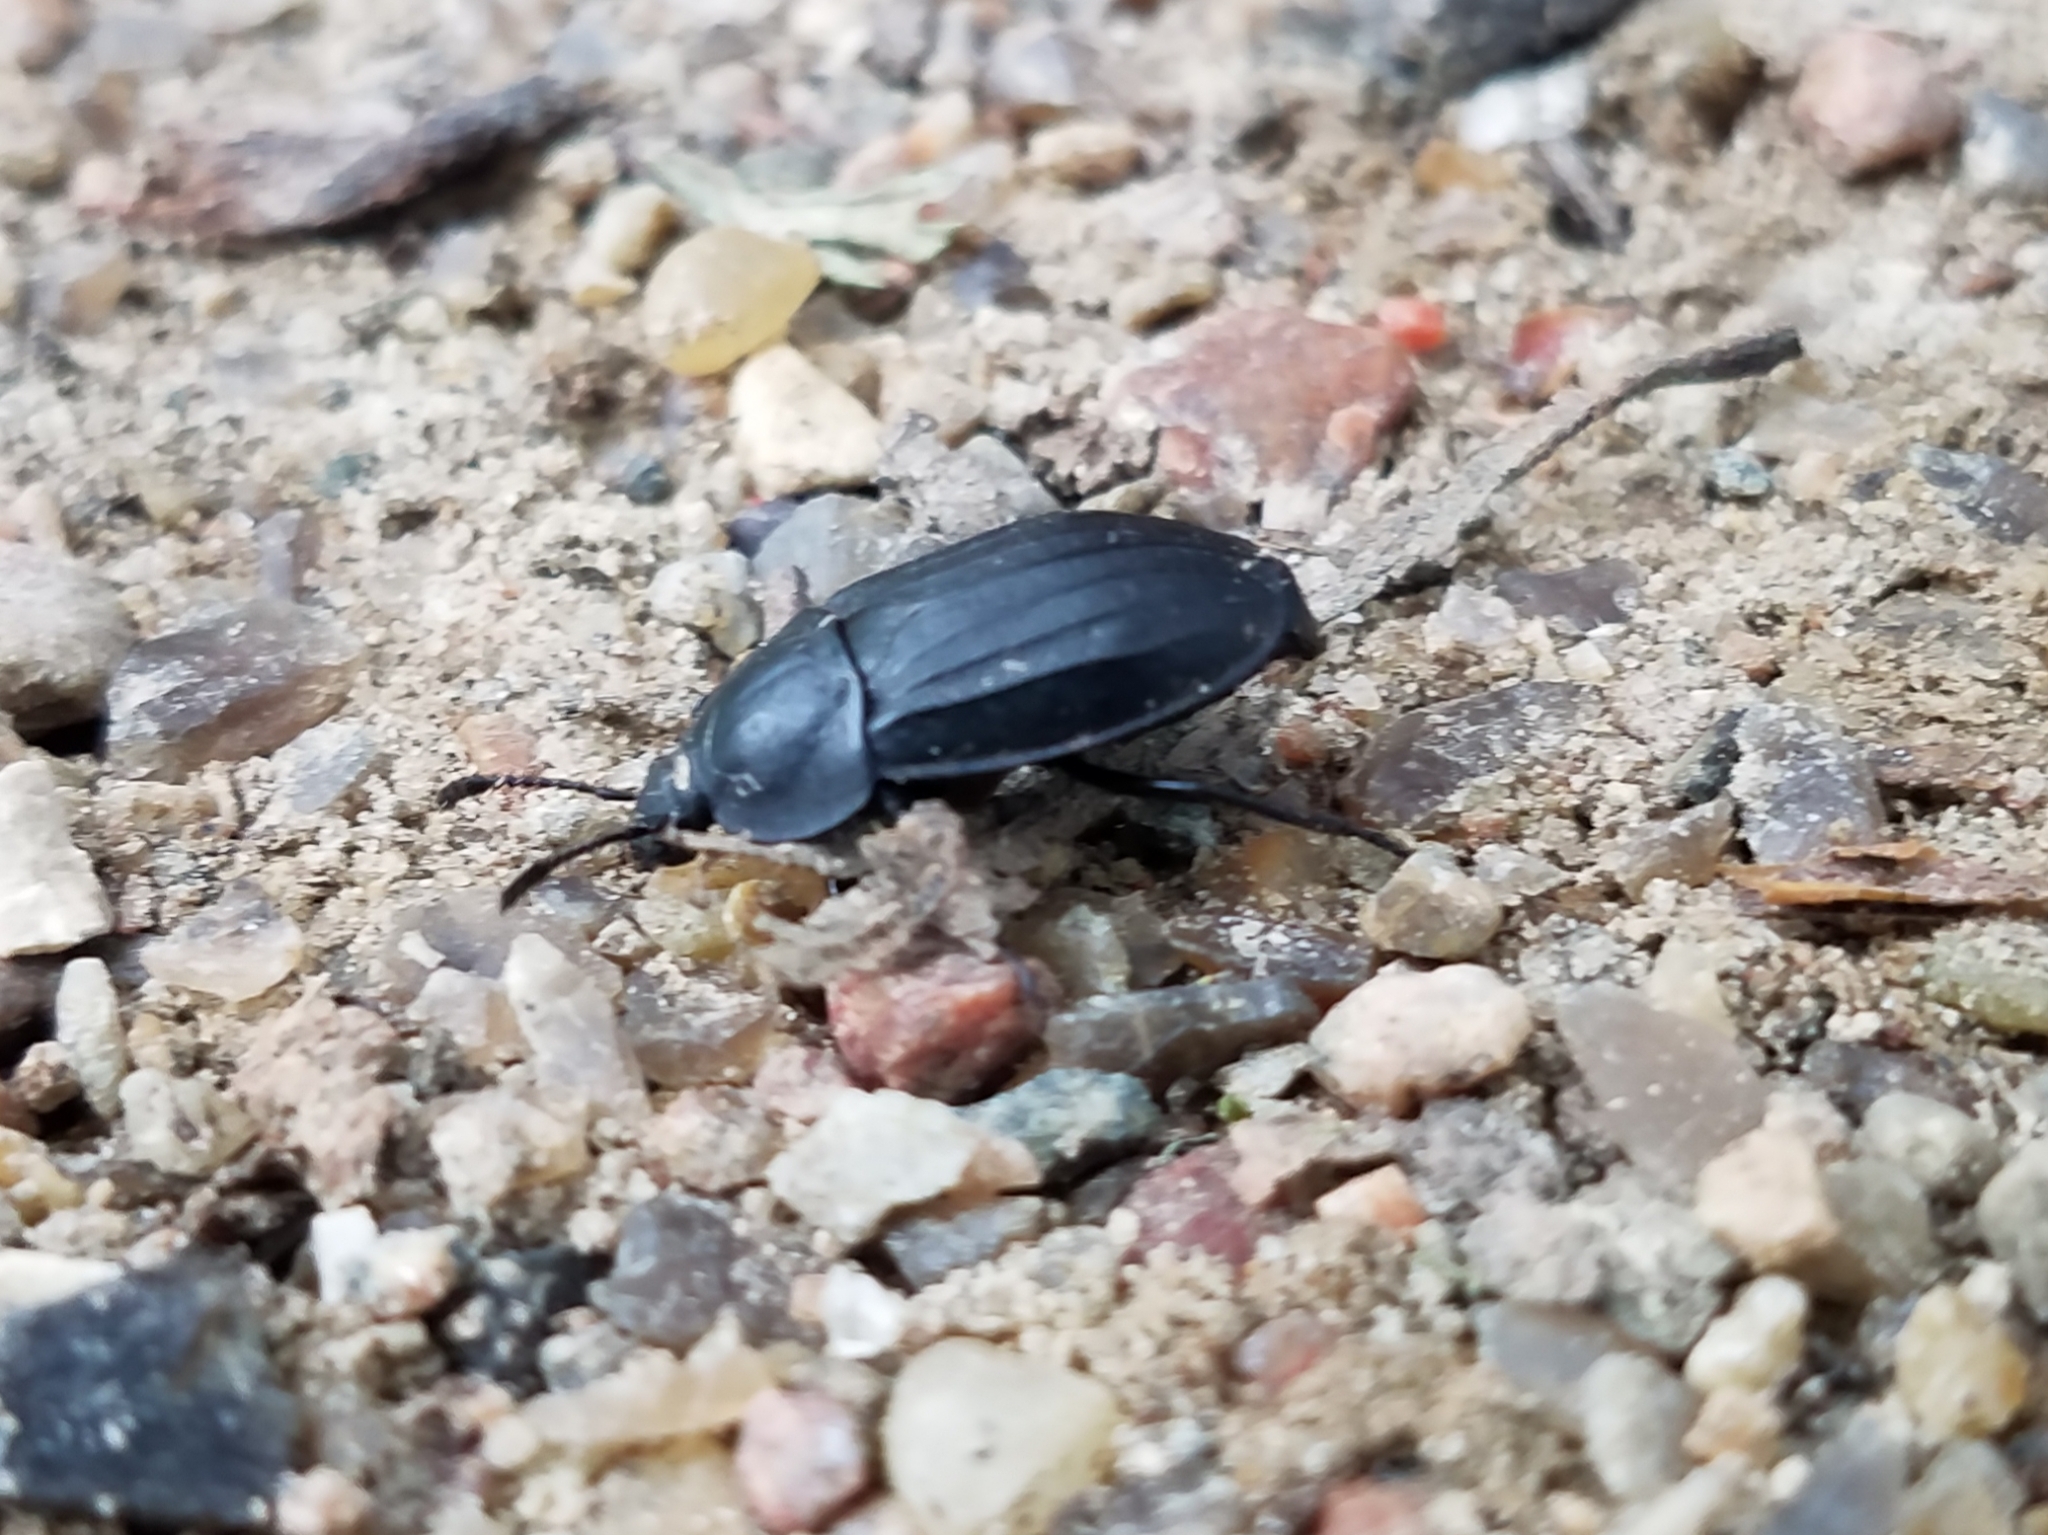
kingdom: Animalia
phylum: Arthropoda
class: Insecta
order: Coleoptera
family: Staphylinidae
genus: Silpha
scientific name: Silpha tristis
